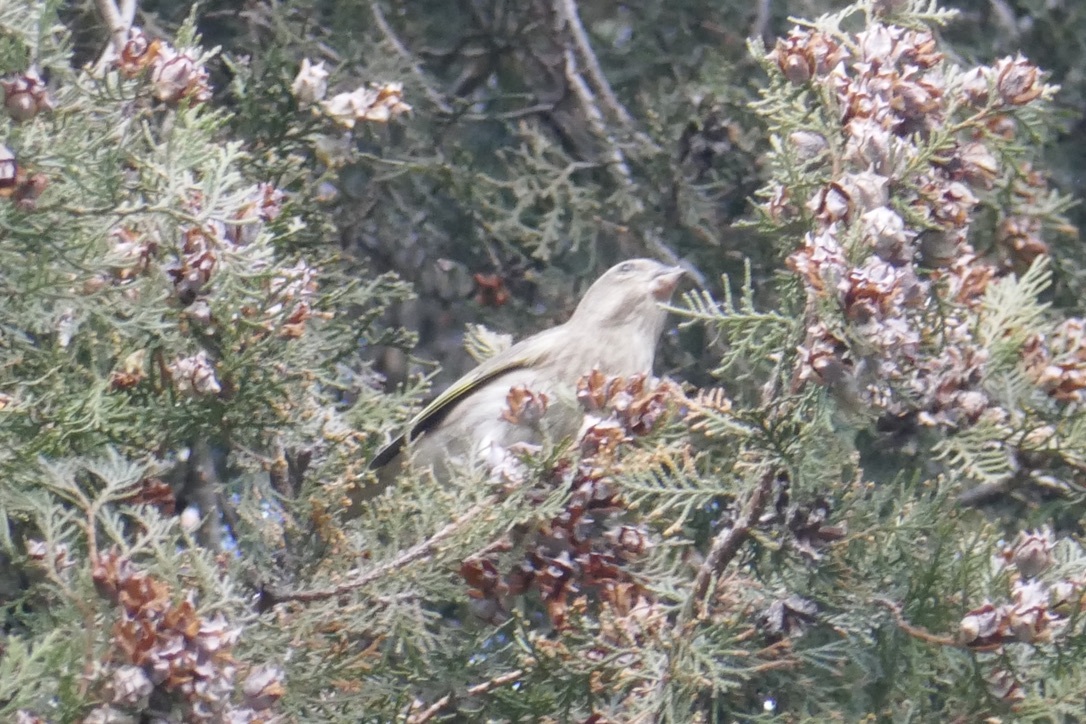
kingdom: Plantae
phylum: Tracheophyta
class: Liliopsida
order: Poales
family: Poaceae
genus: Chloris
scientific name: Chloris chloris
